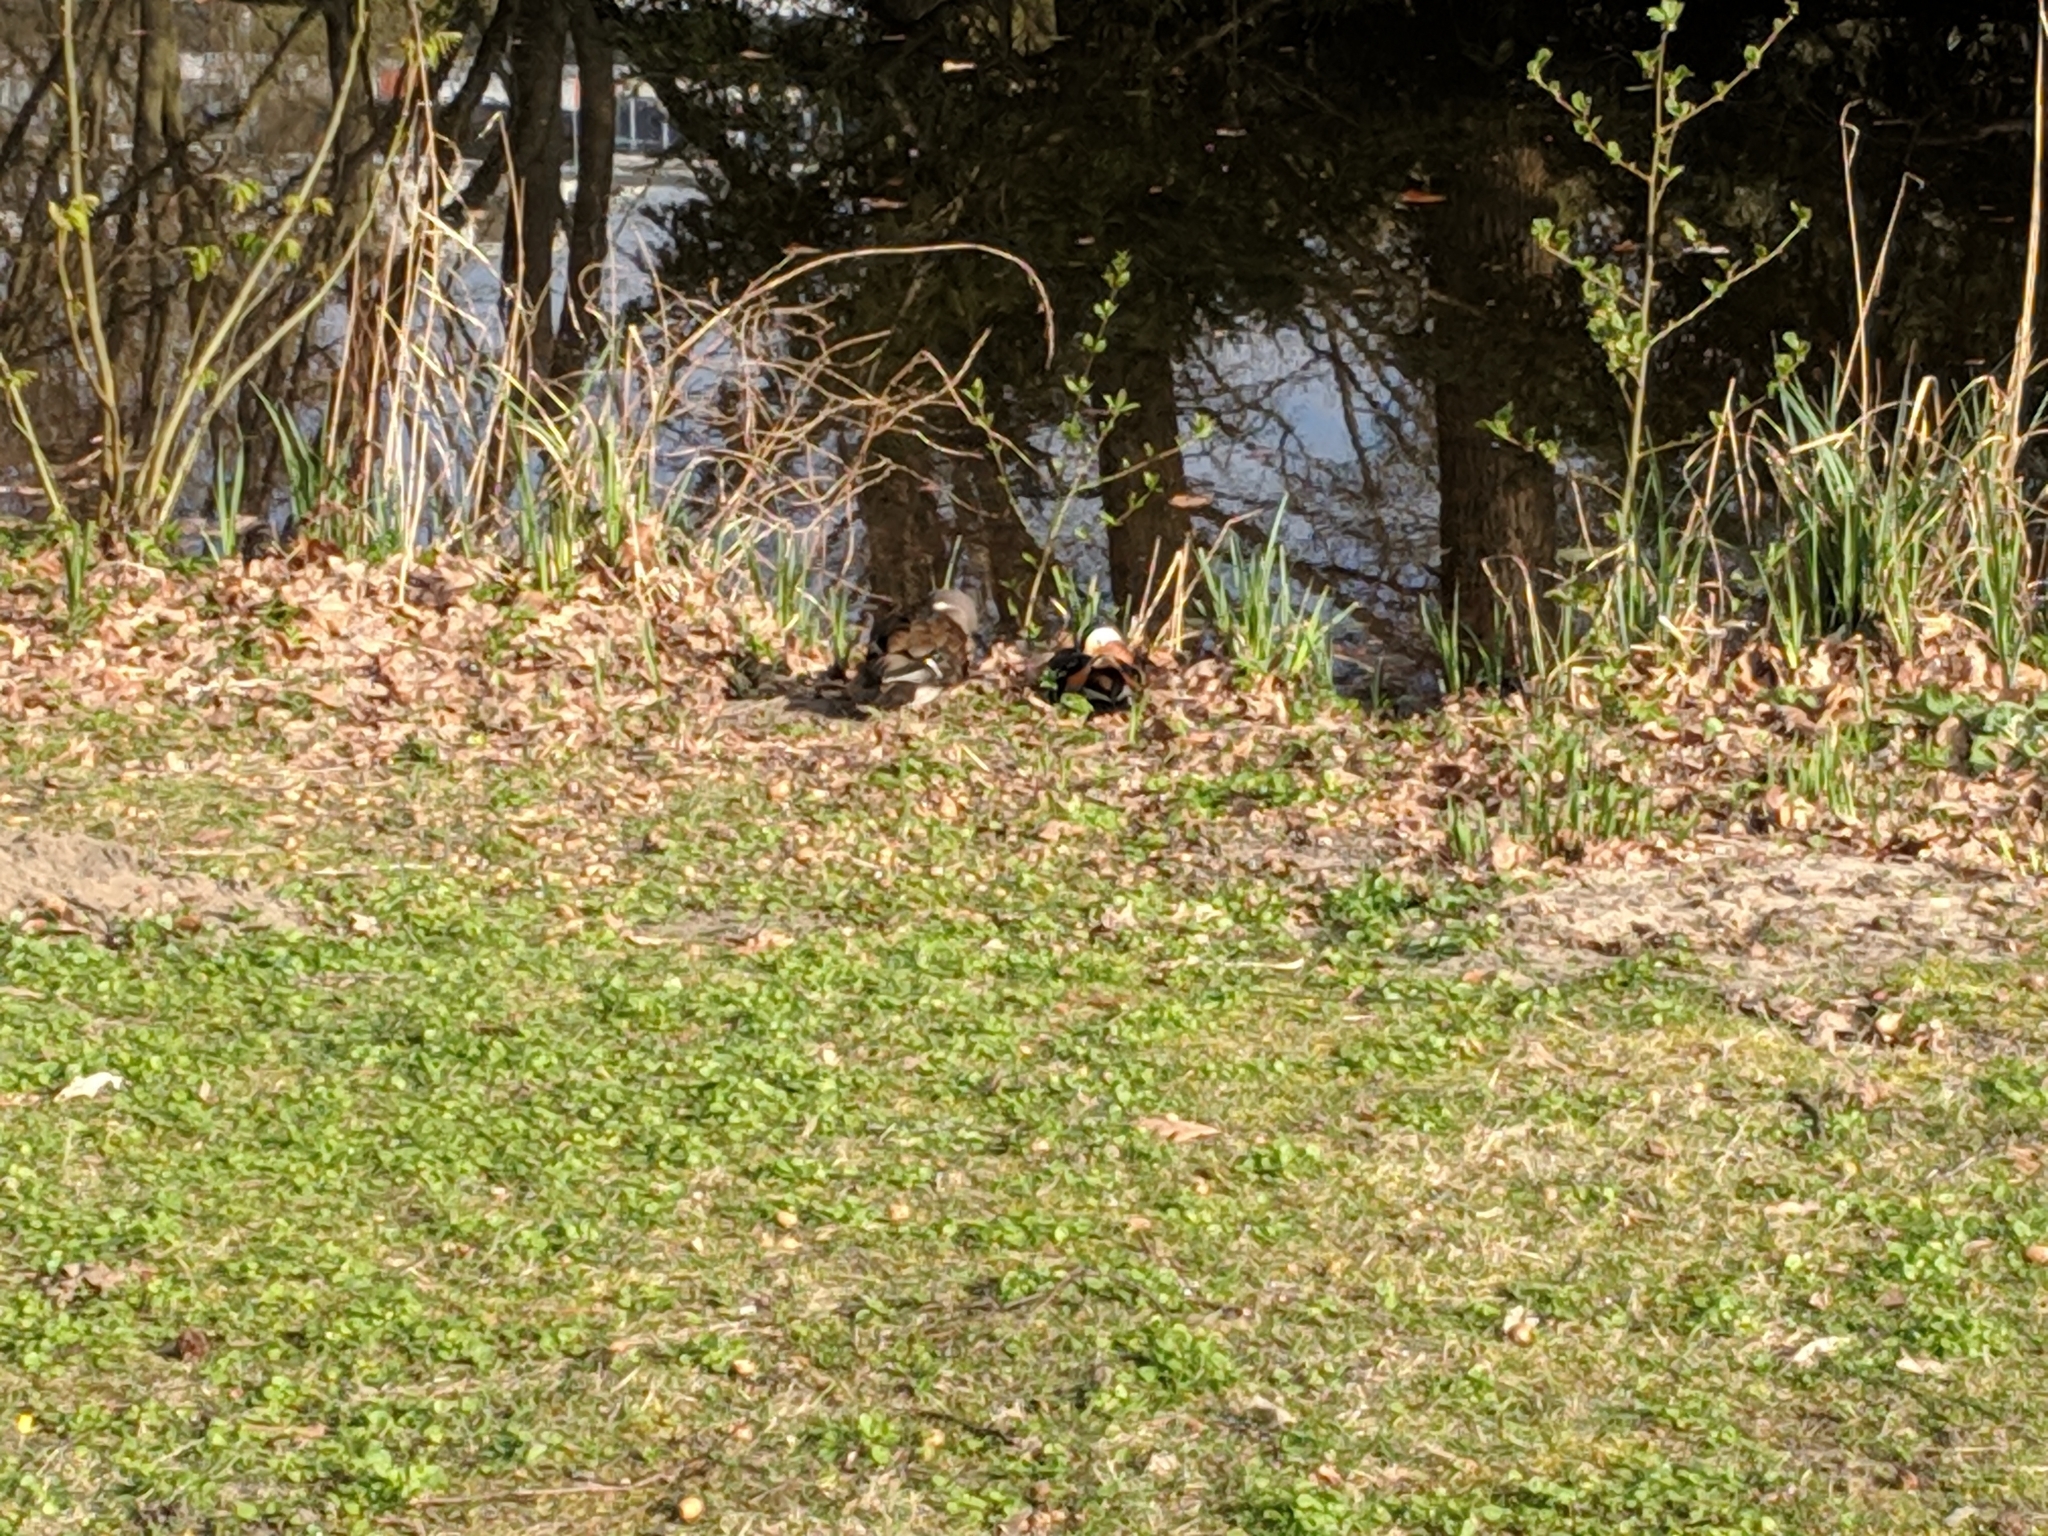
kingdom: Animalia
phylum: Chordata
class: Aves
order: Anseriformes
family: Anatidae
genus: Aix
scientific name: Aix galericulata
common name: Mandarin duck
